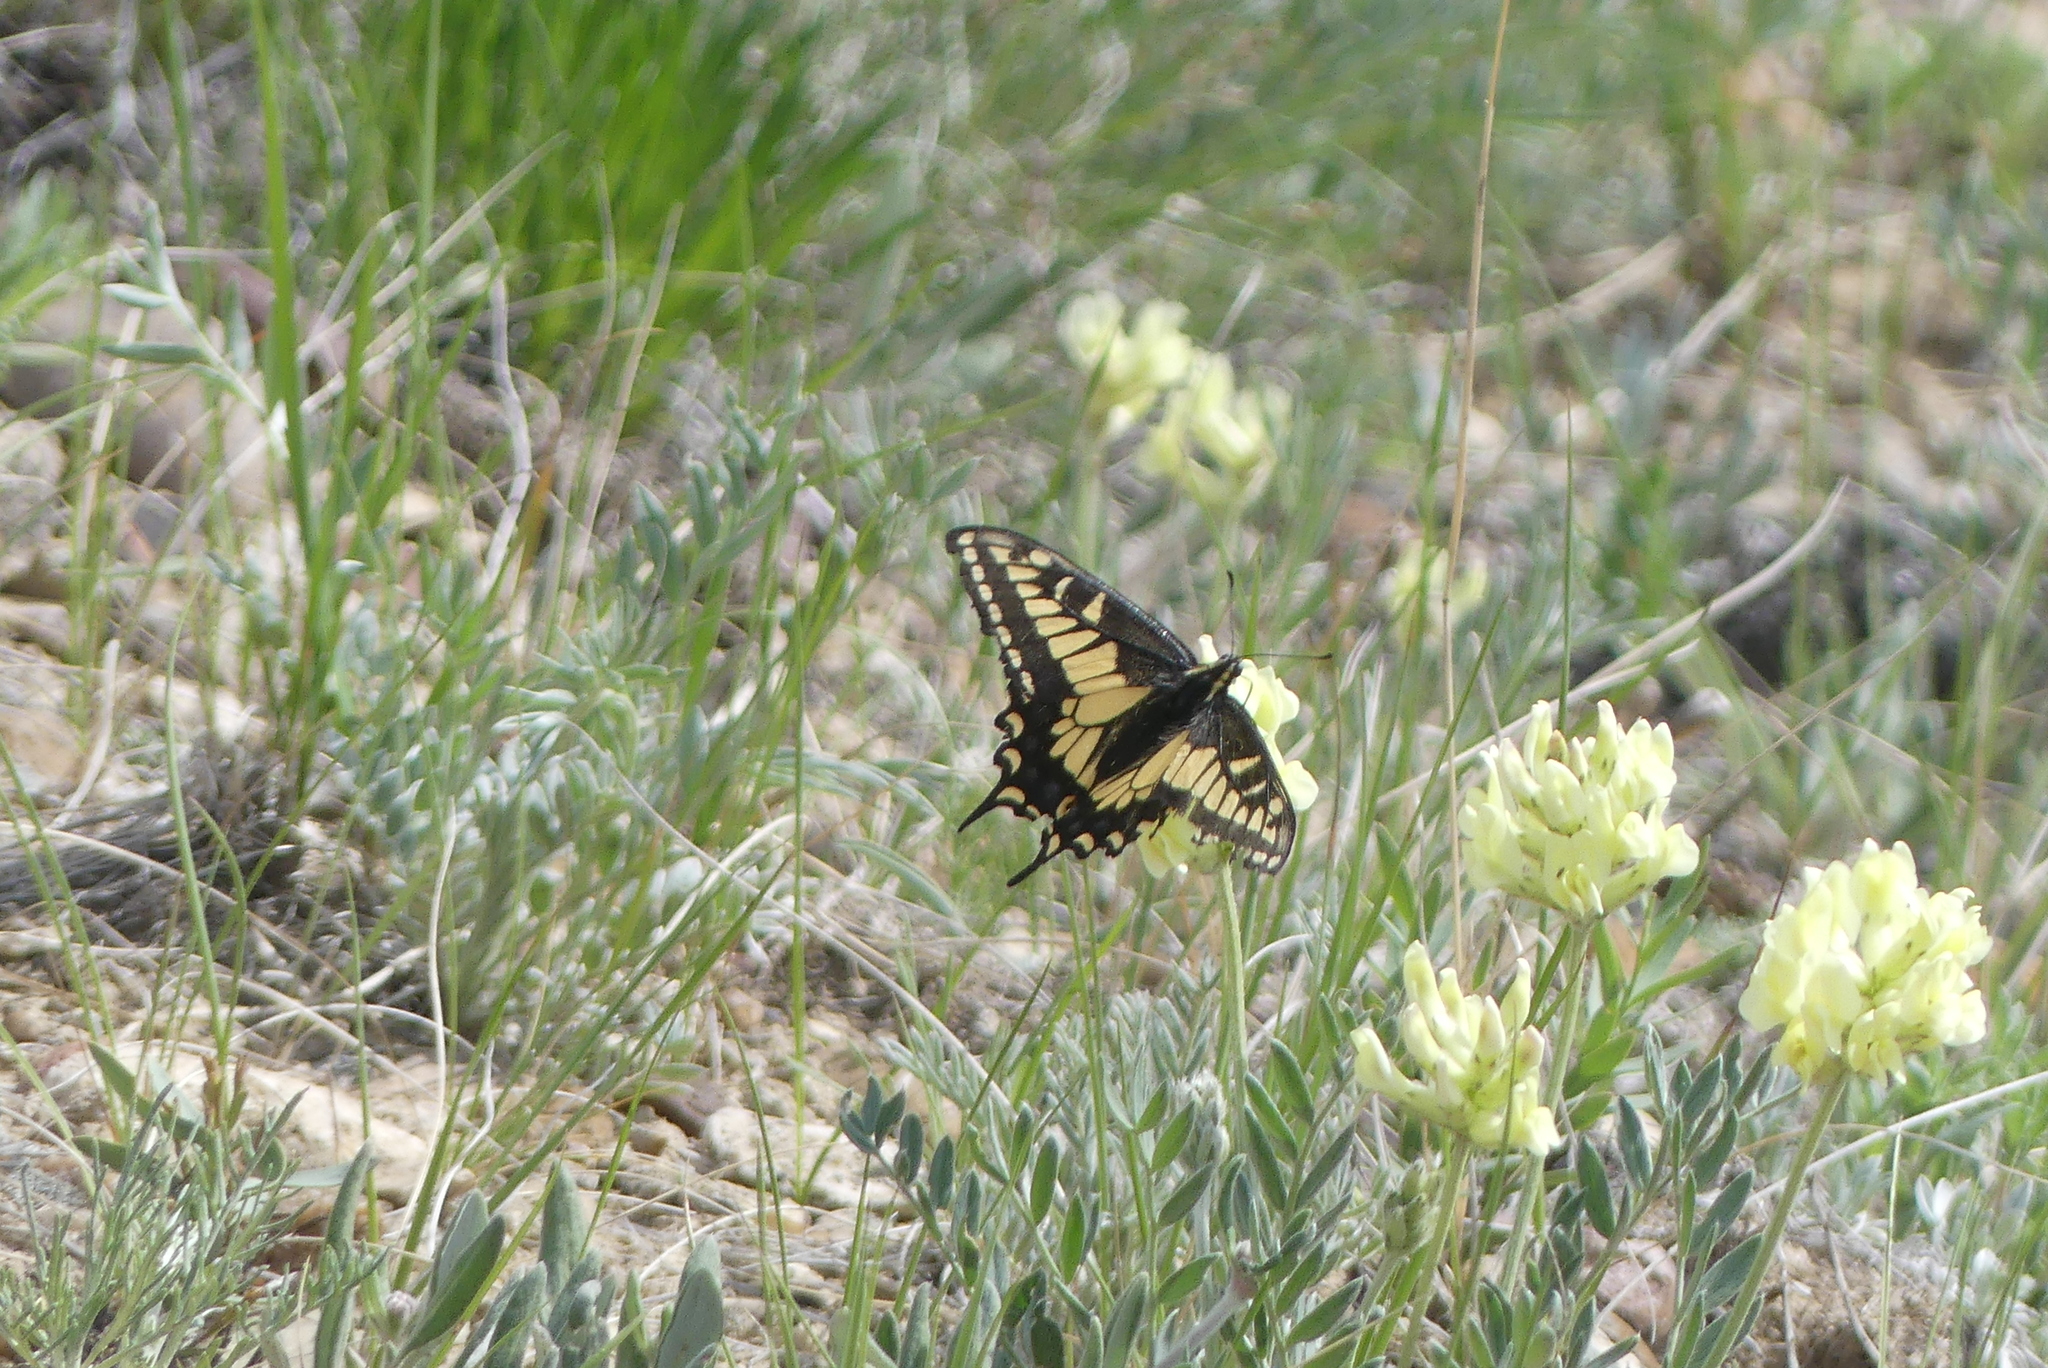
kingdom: Animalia
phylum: Arthropoda
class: Insecta
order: Lepidoptera
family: Papilionidae
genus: Papilio
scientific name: Papilio zelicaon
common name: Anise swallowtail
